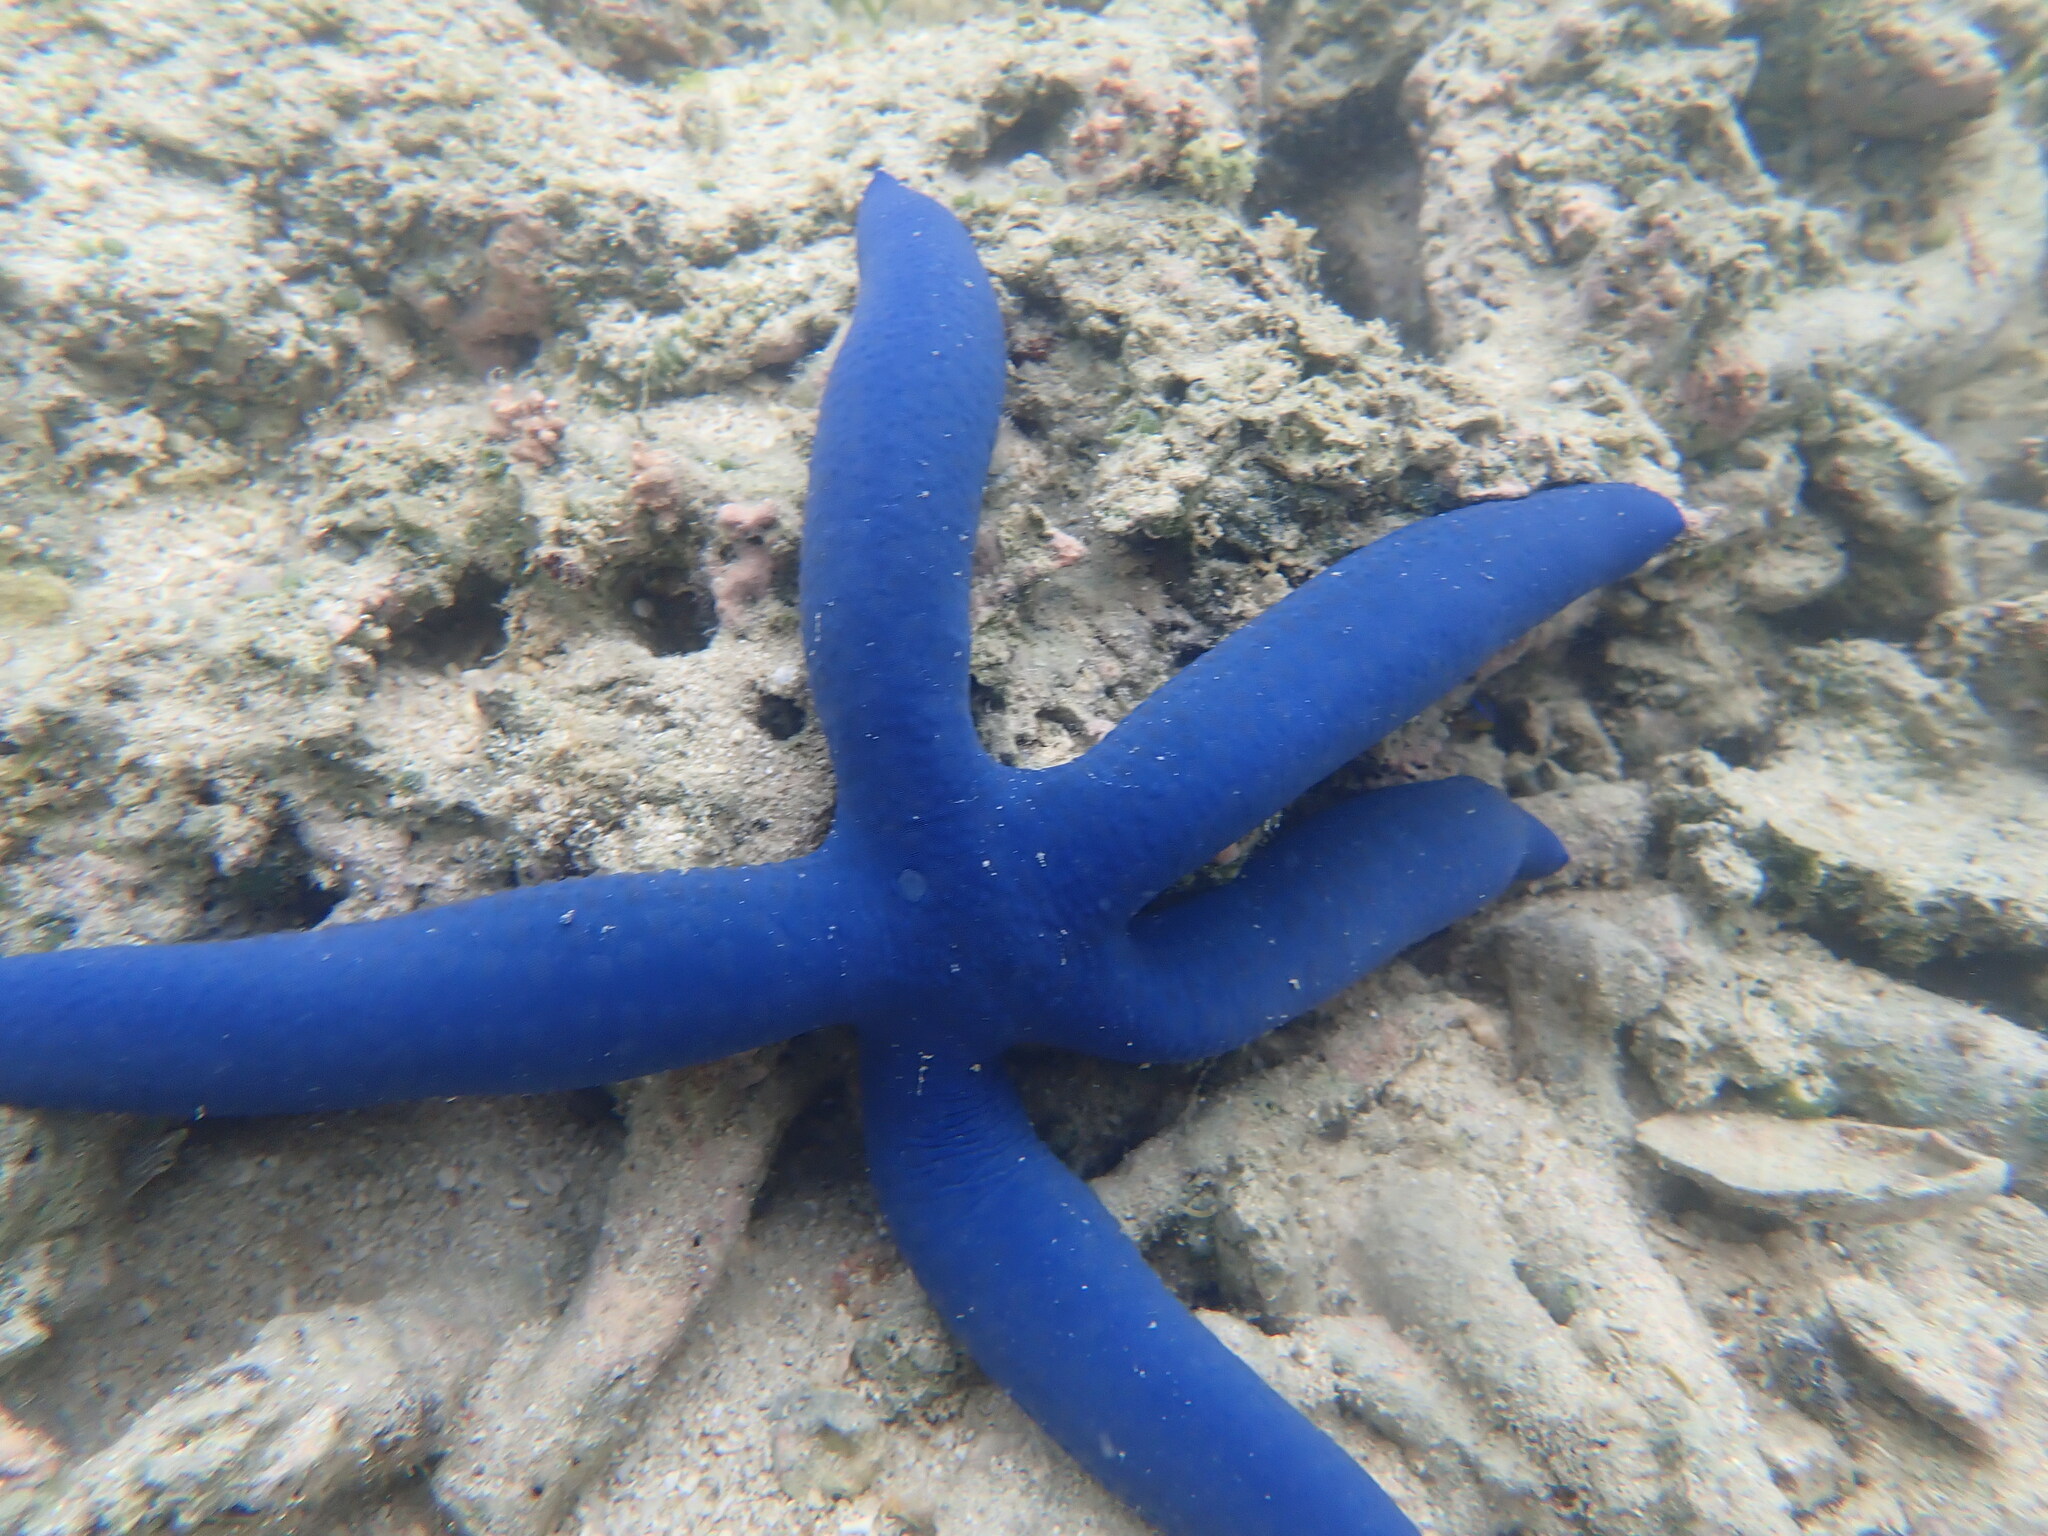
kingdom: Animalia
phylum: Echinodermata
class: Asteroidea
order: Valvatida
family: Ophidiasteridae
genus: Linckia
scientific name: Linckia laevigata
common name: Azure sea star
